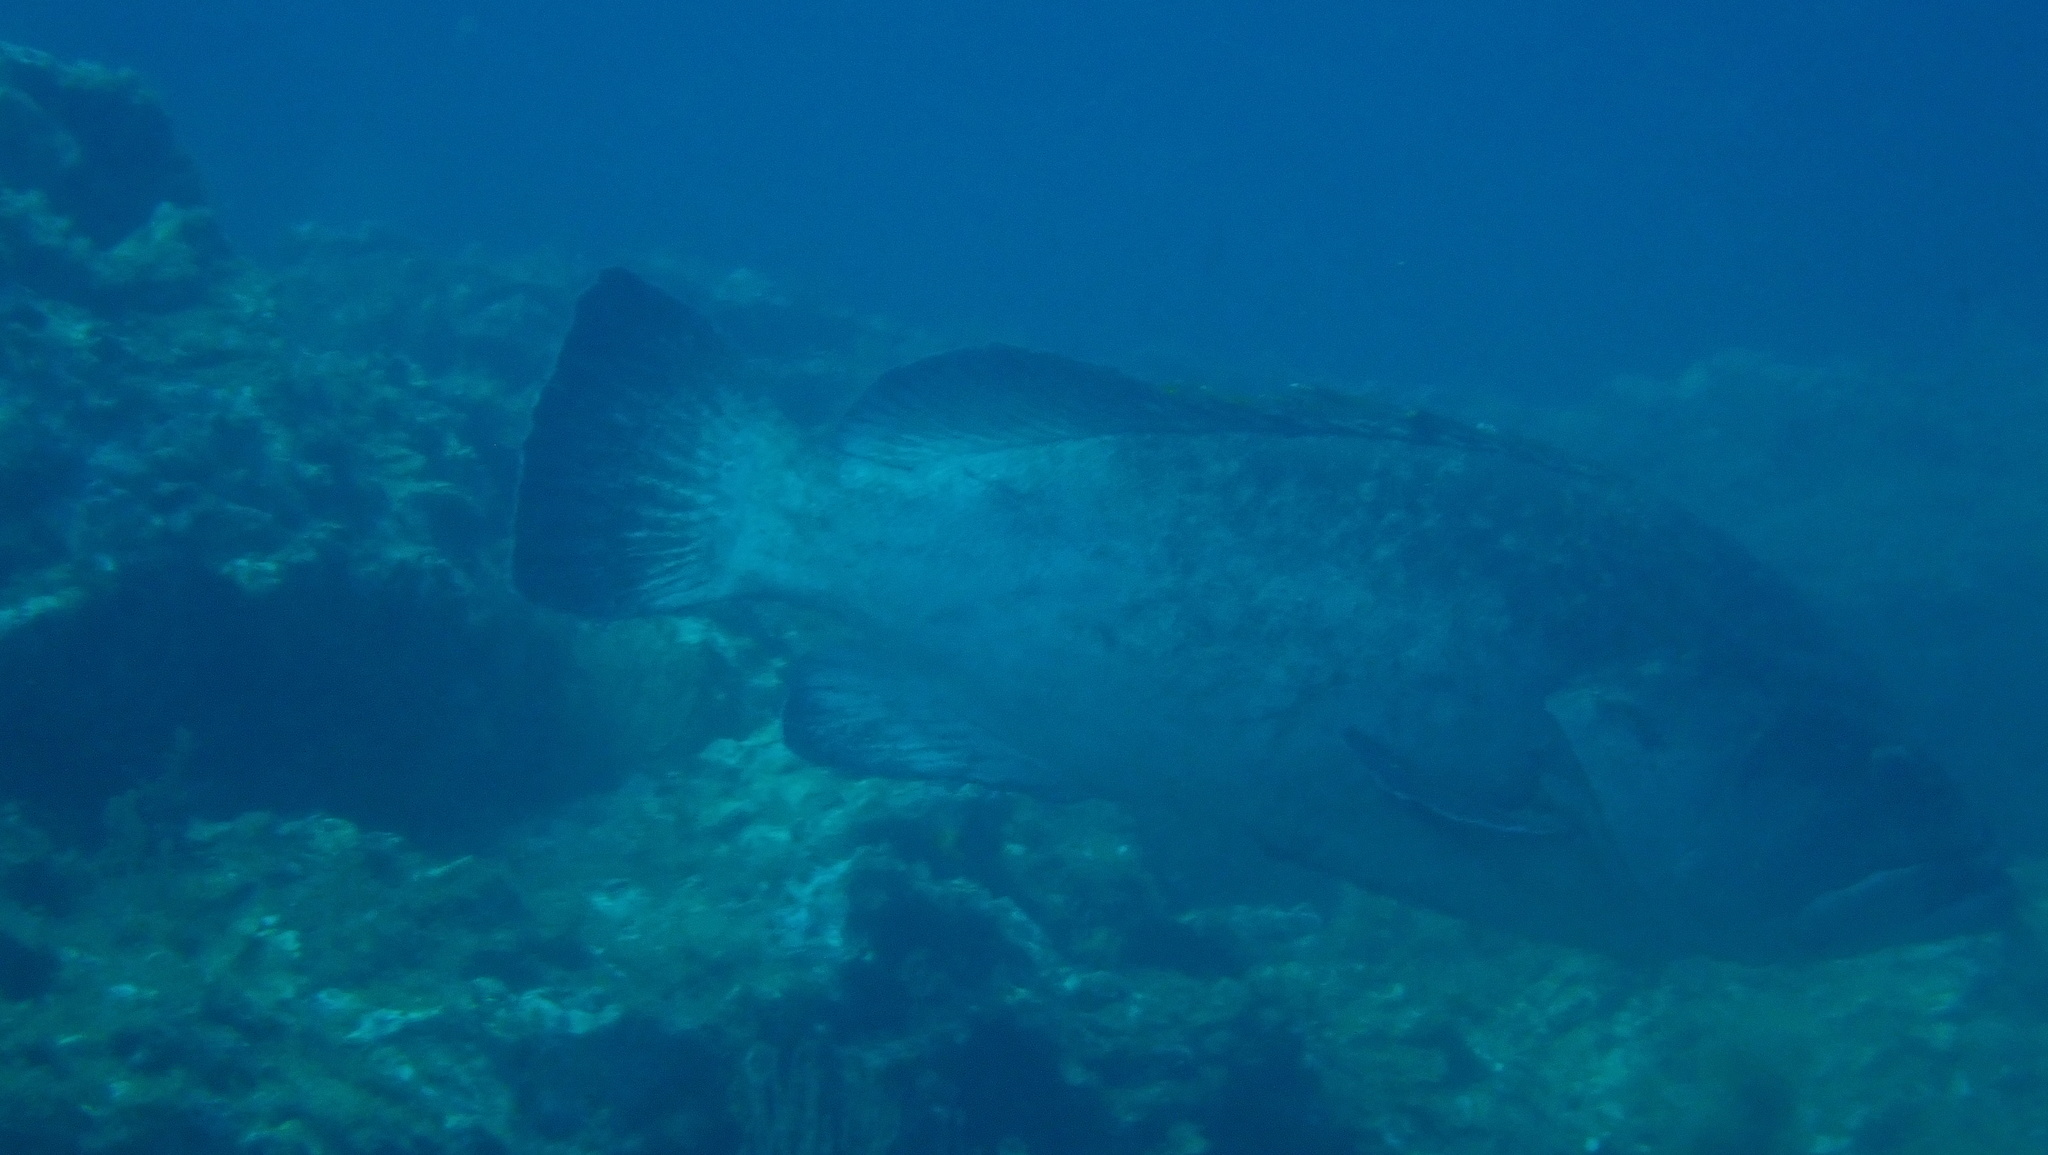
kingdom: Animalia
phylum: Chordata
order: Perciformes
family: Serranidae
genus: Epinephelus
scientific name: Epinephelus marginatus
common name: Dusky grouper
